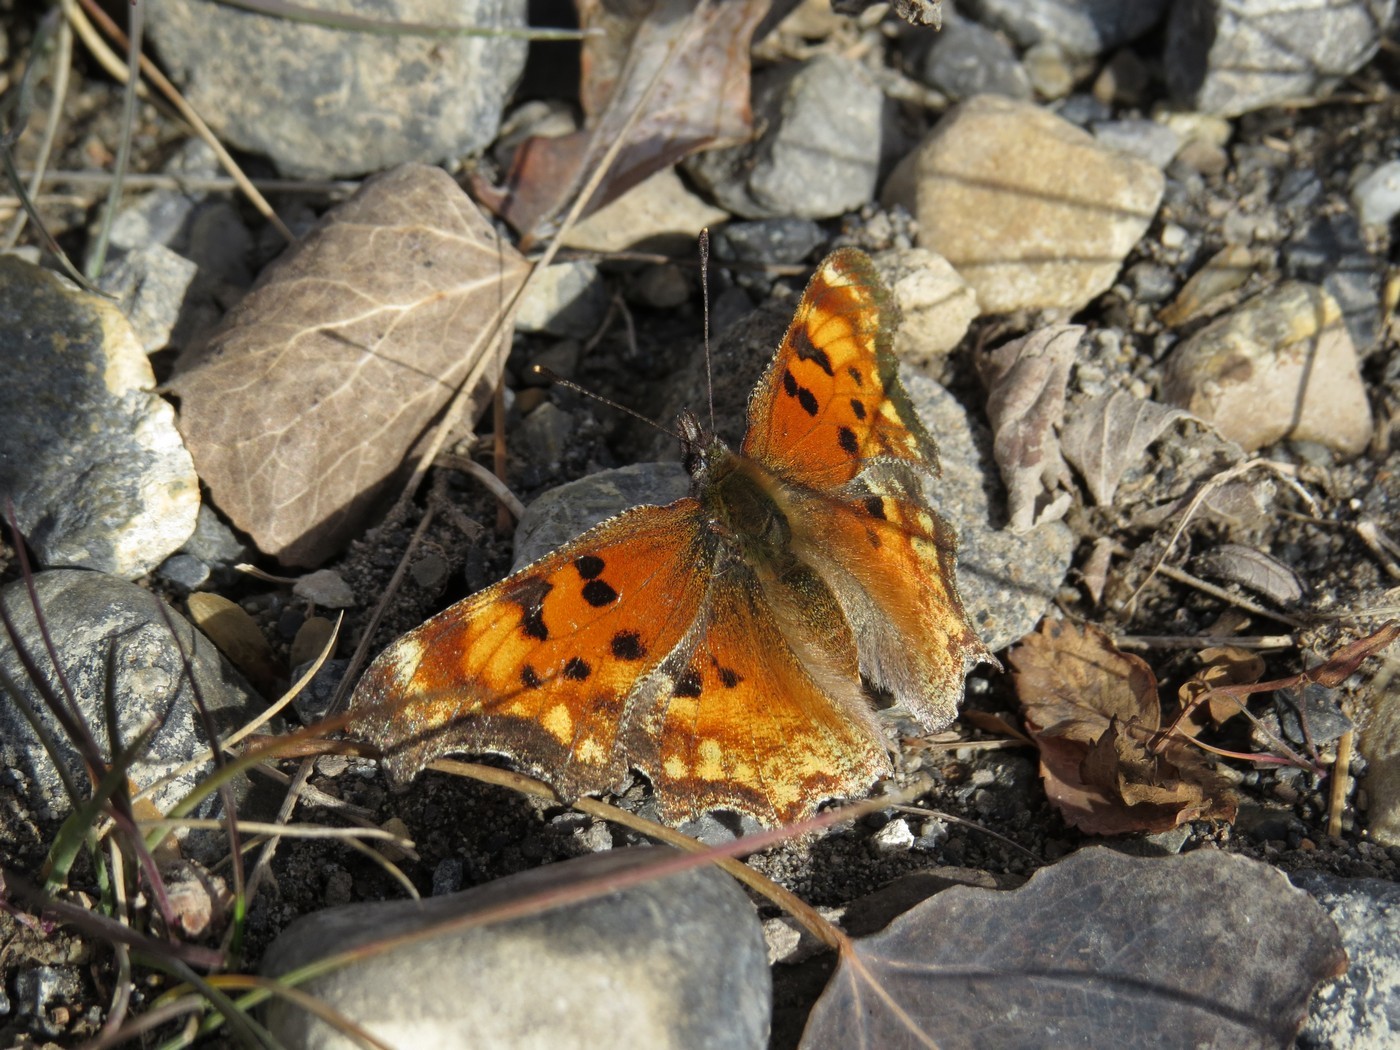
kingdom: Animalia
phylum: Arthropoda
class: Insecta
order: Lepidoptera
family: Nymphalidae
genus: Polygonia
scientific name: Polygonia gracilis
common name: Hoary comma
